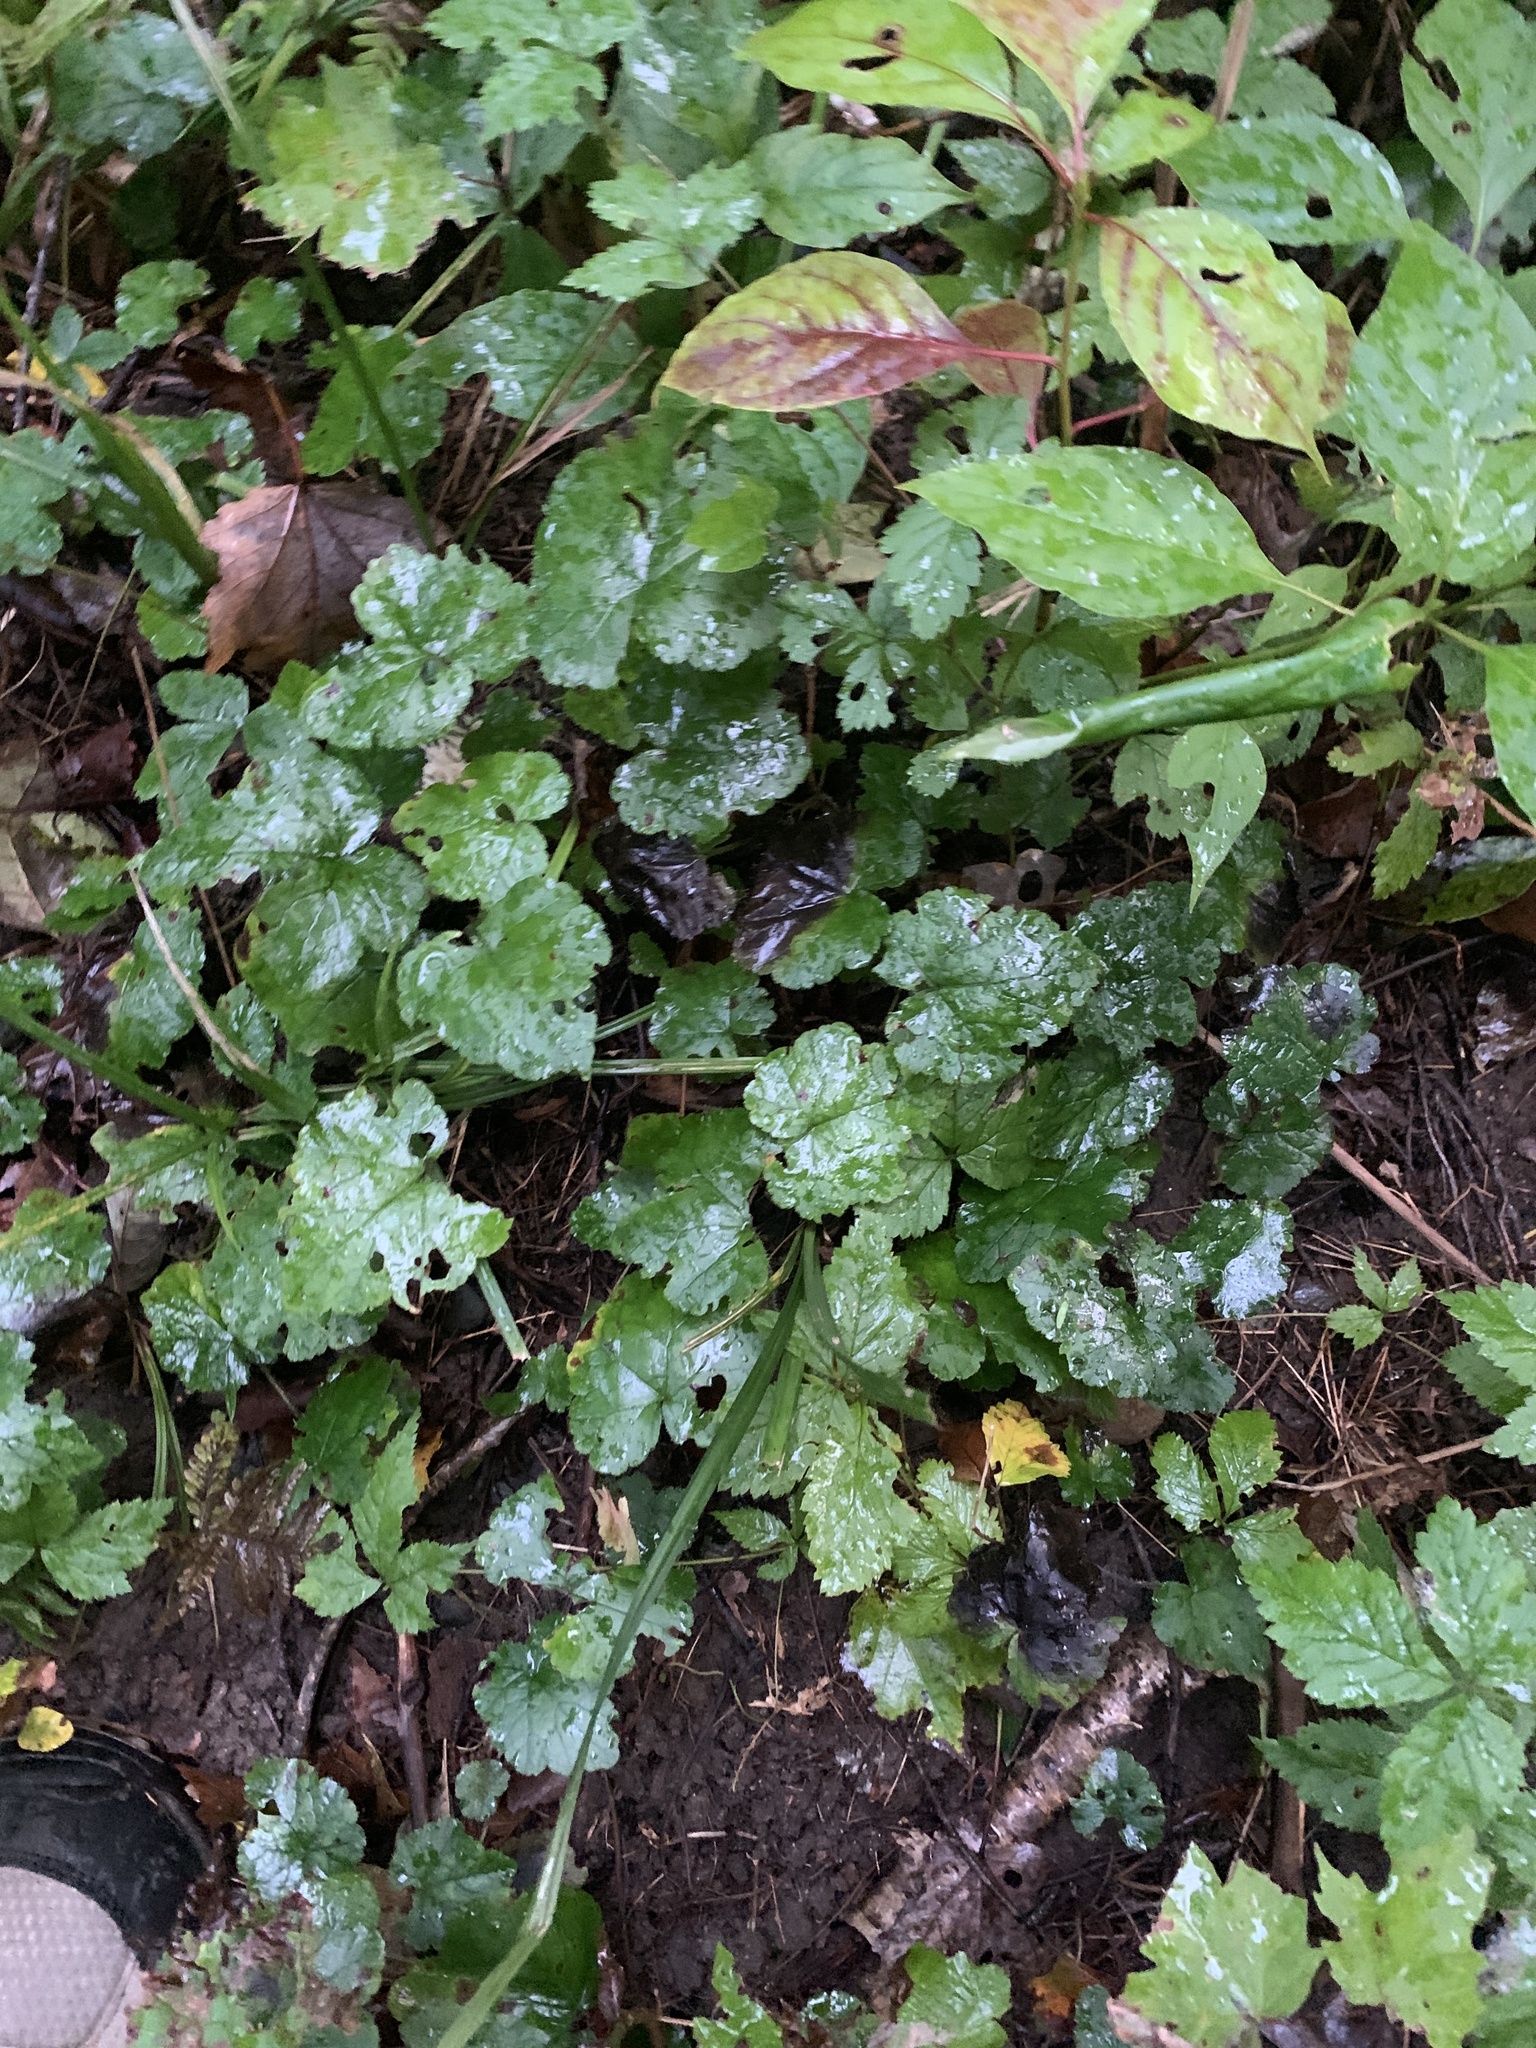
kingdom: Plantae
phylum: Tracheophyta
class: Magnoliopsida
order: Saxifragales
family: Saxifragaceae
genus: Tiarella
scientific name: Tiarella stolonifera
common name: Stoloniferous foamflower
